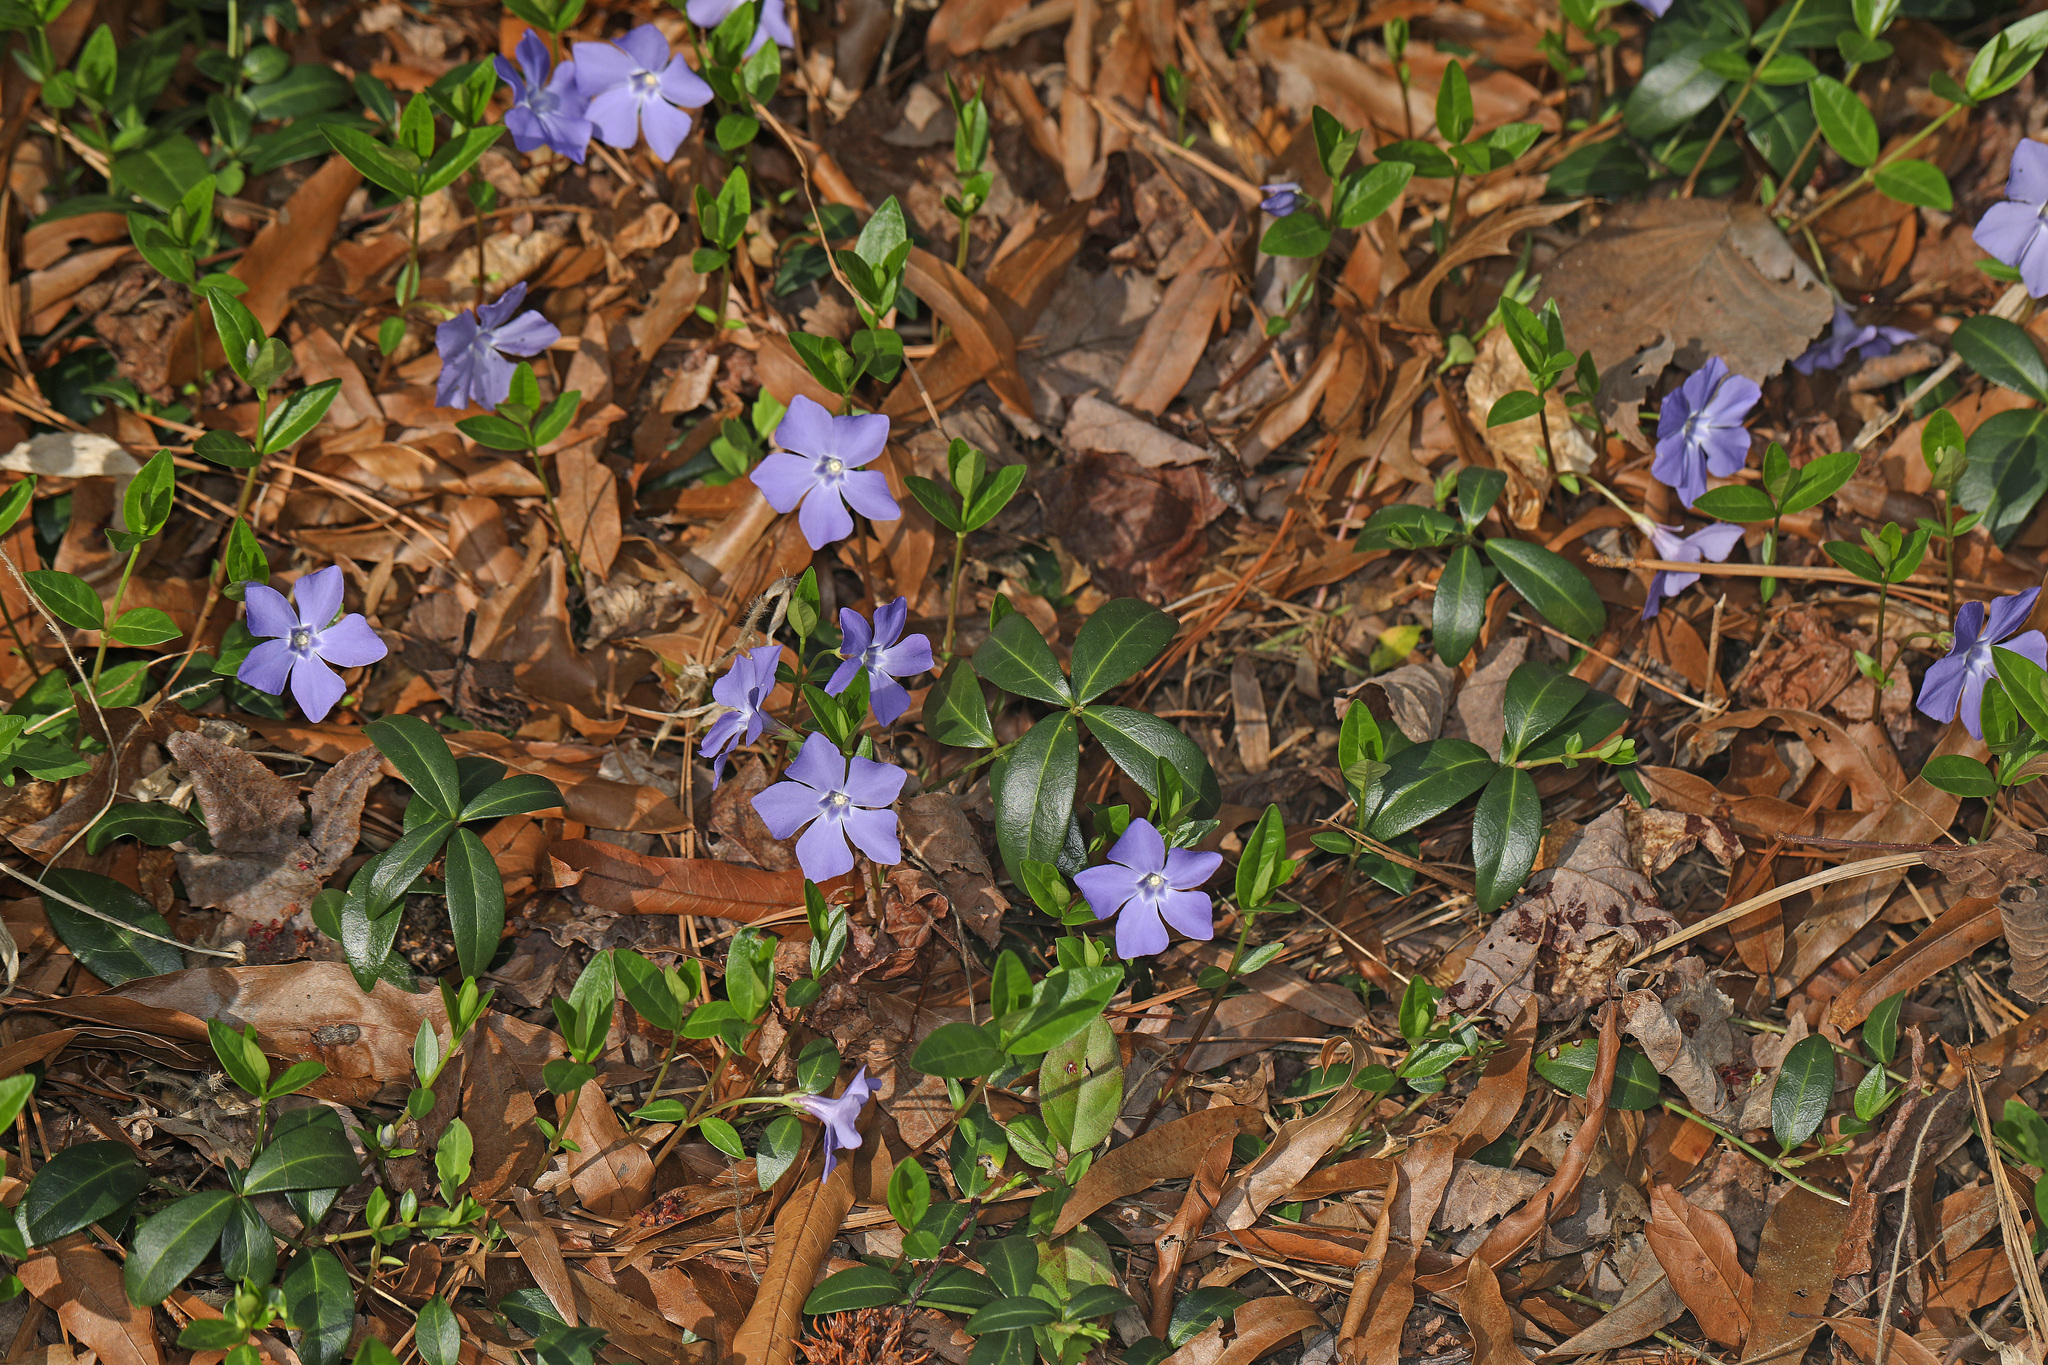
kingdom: Plantae
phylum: Tracheophyta
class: Magnoliopsida
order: Gentianales
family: Apocynaceae
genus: Vinca
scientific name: Vinca minor
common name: Lesser periwinkle
